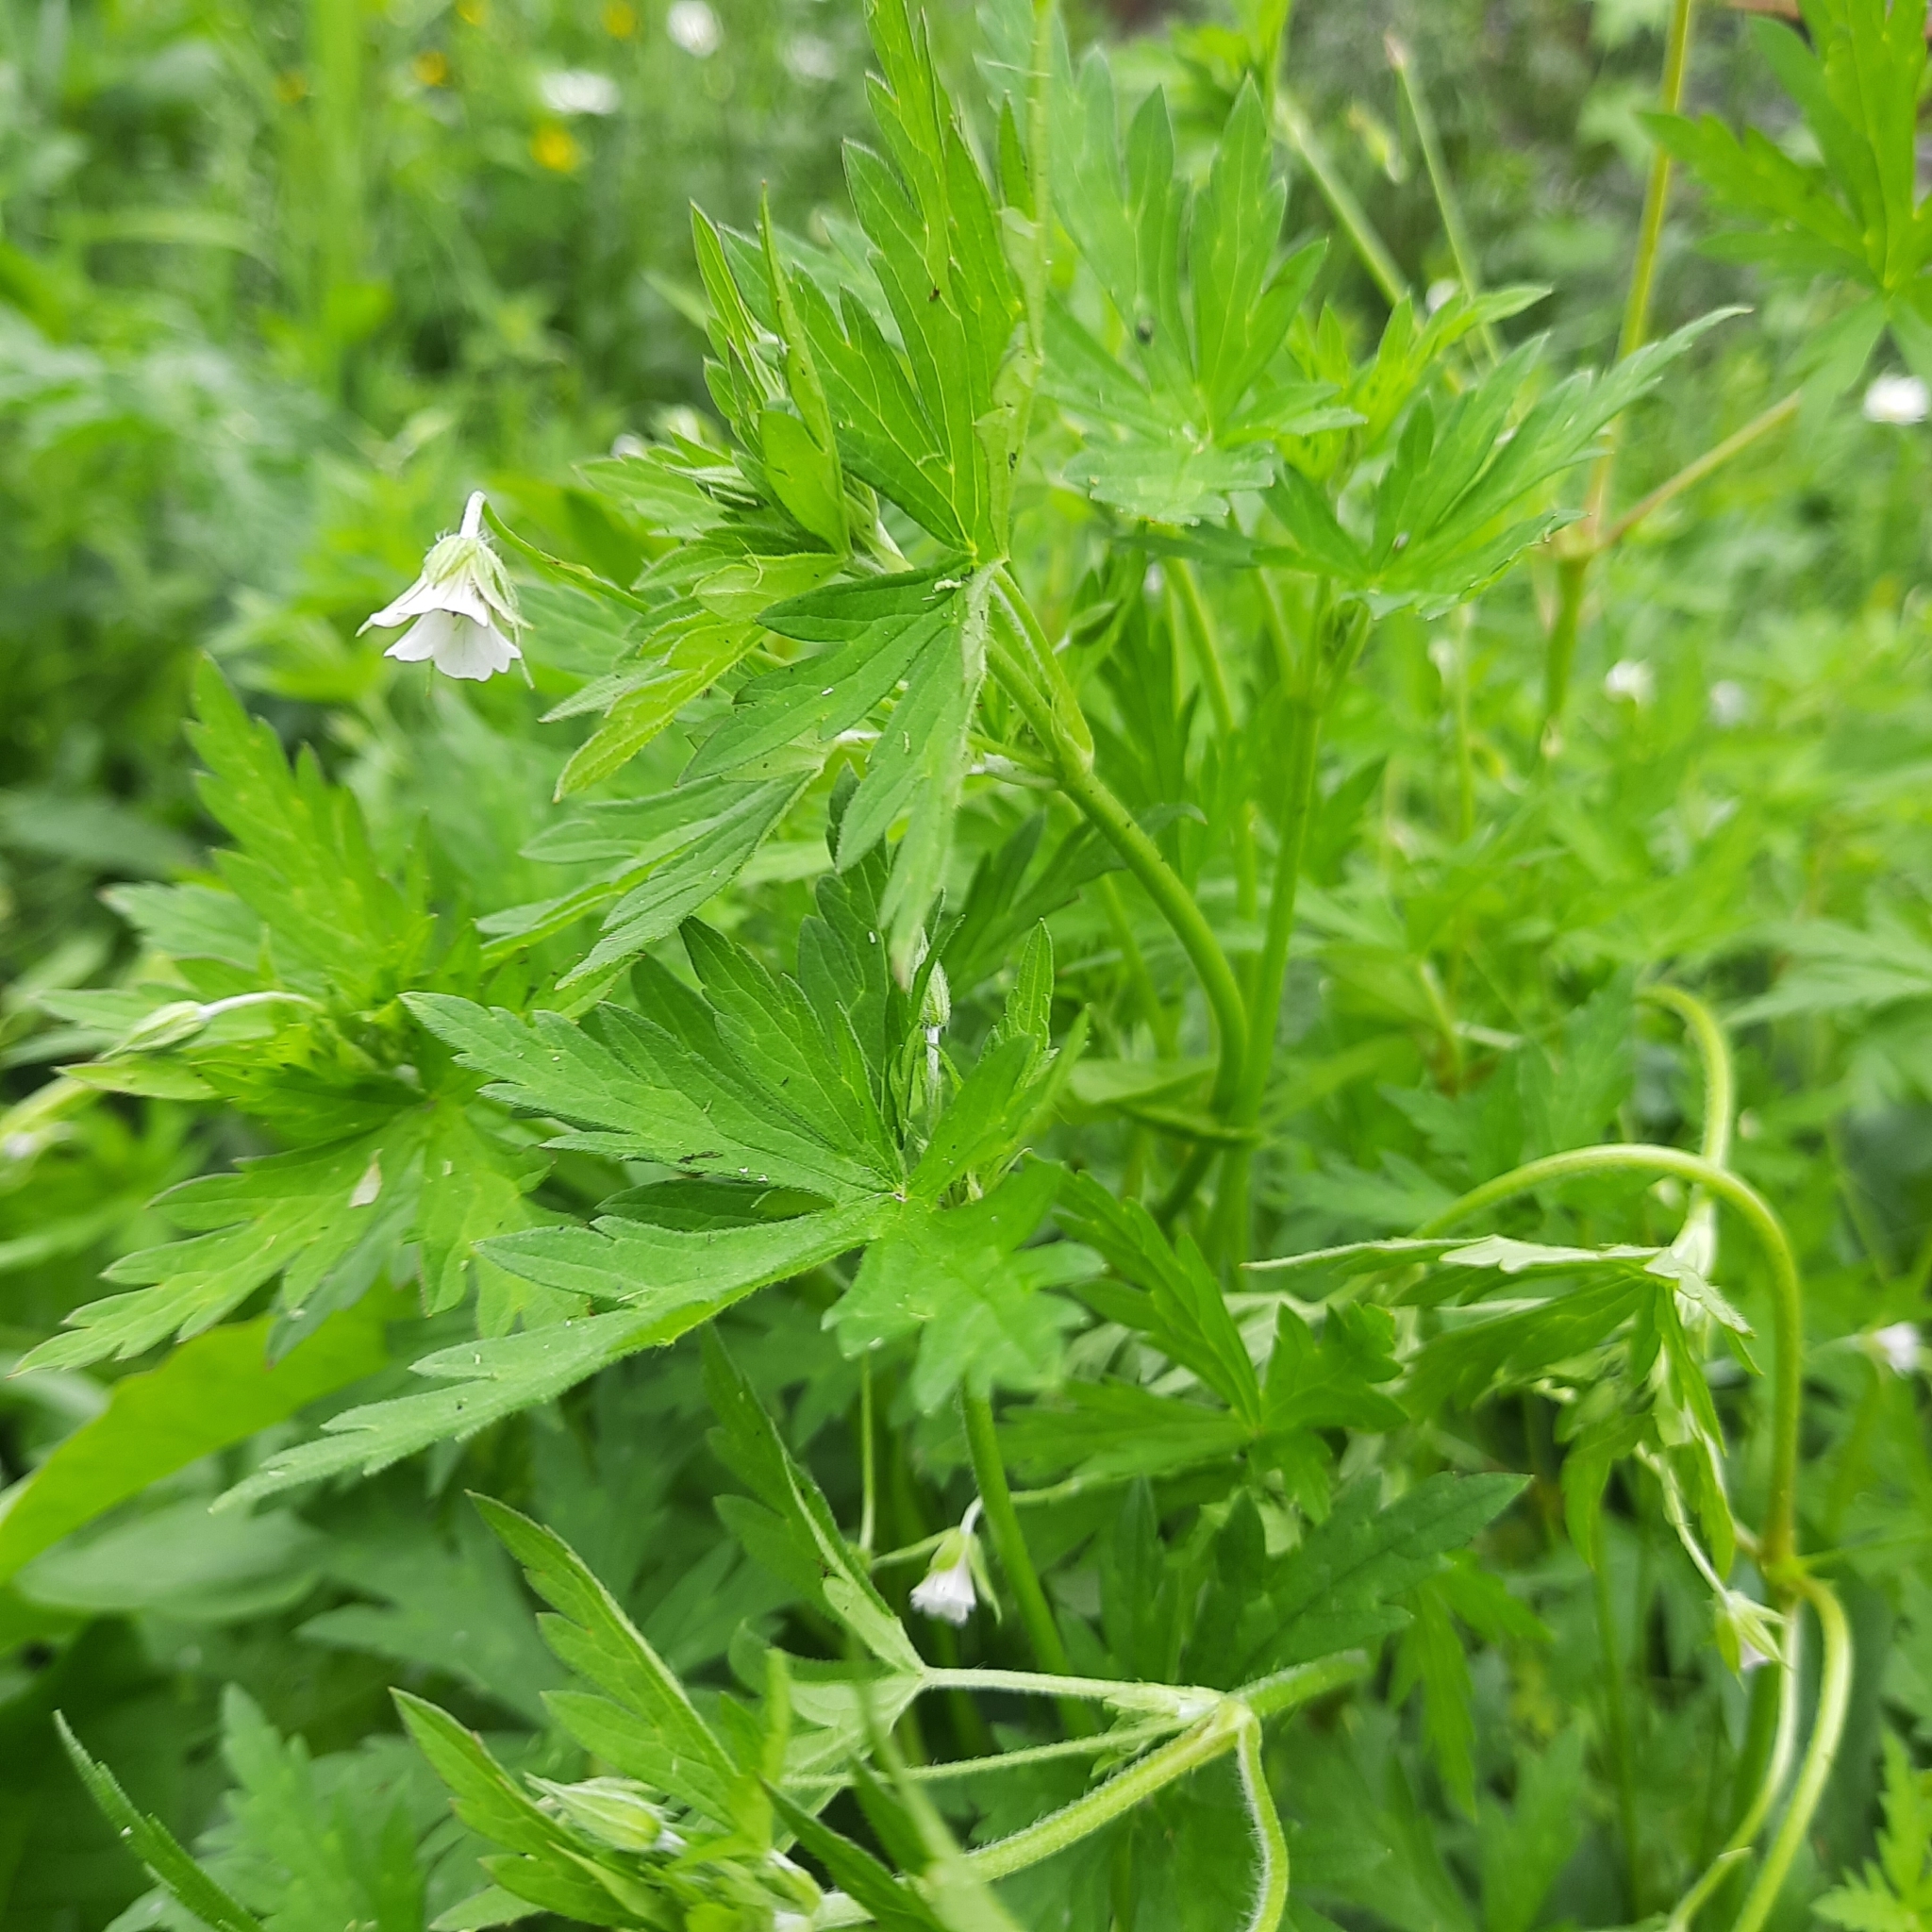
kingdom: Plantae
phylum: Tracheophyta
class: Magnoliopsida
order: Geraniales
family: Geraniaceae
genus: Geranium
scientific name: Geranium sibiricum
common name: Siberian crane's-bill
